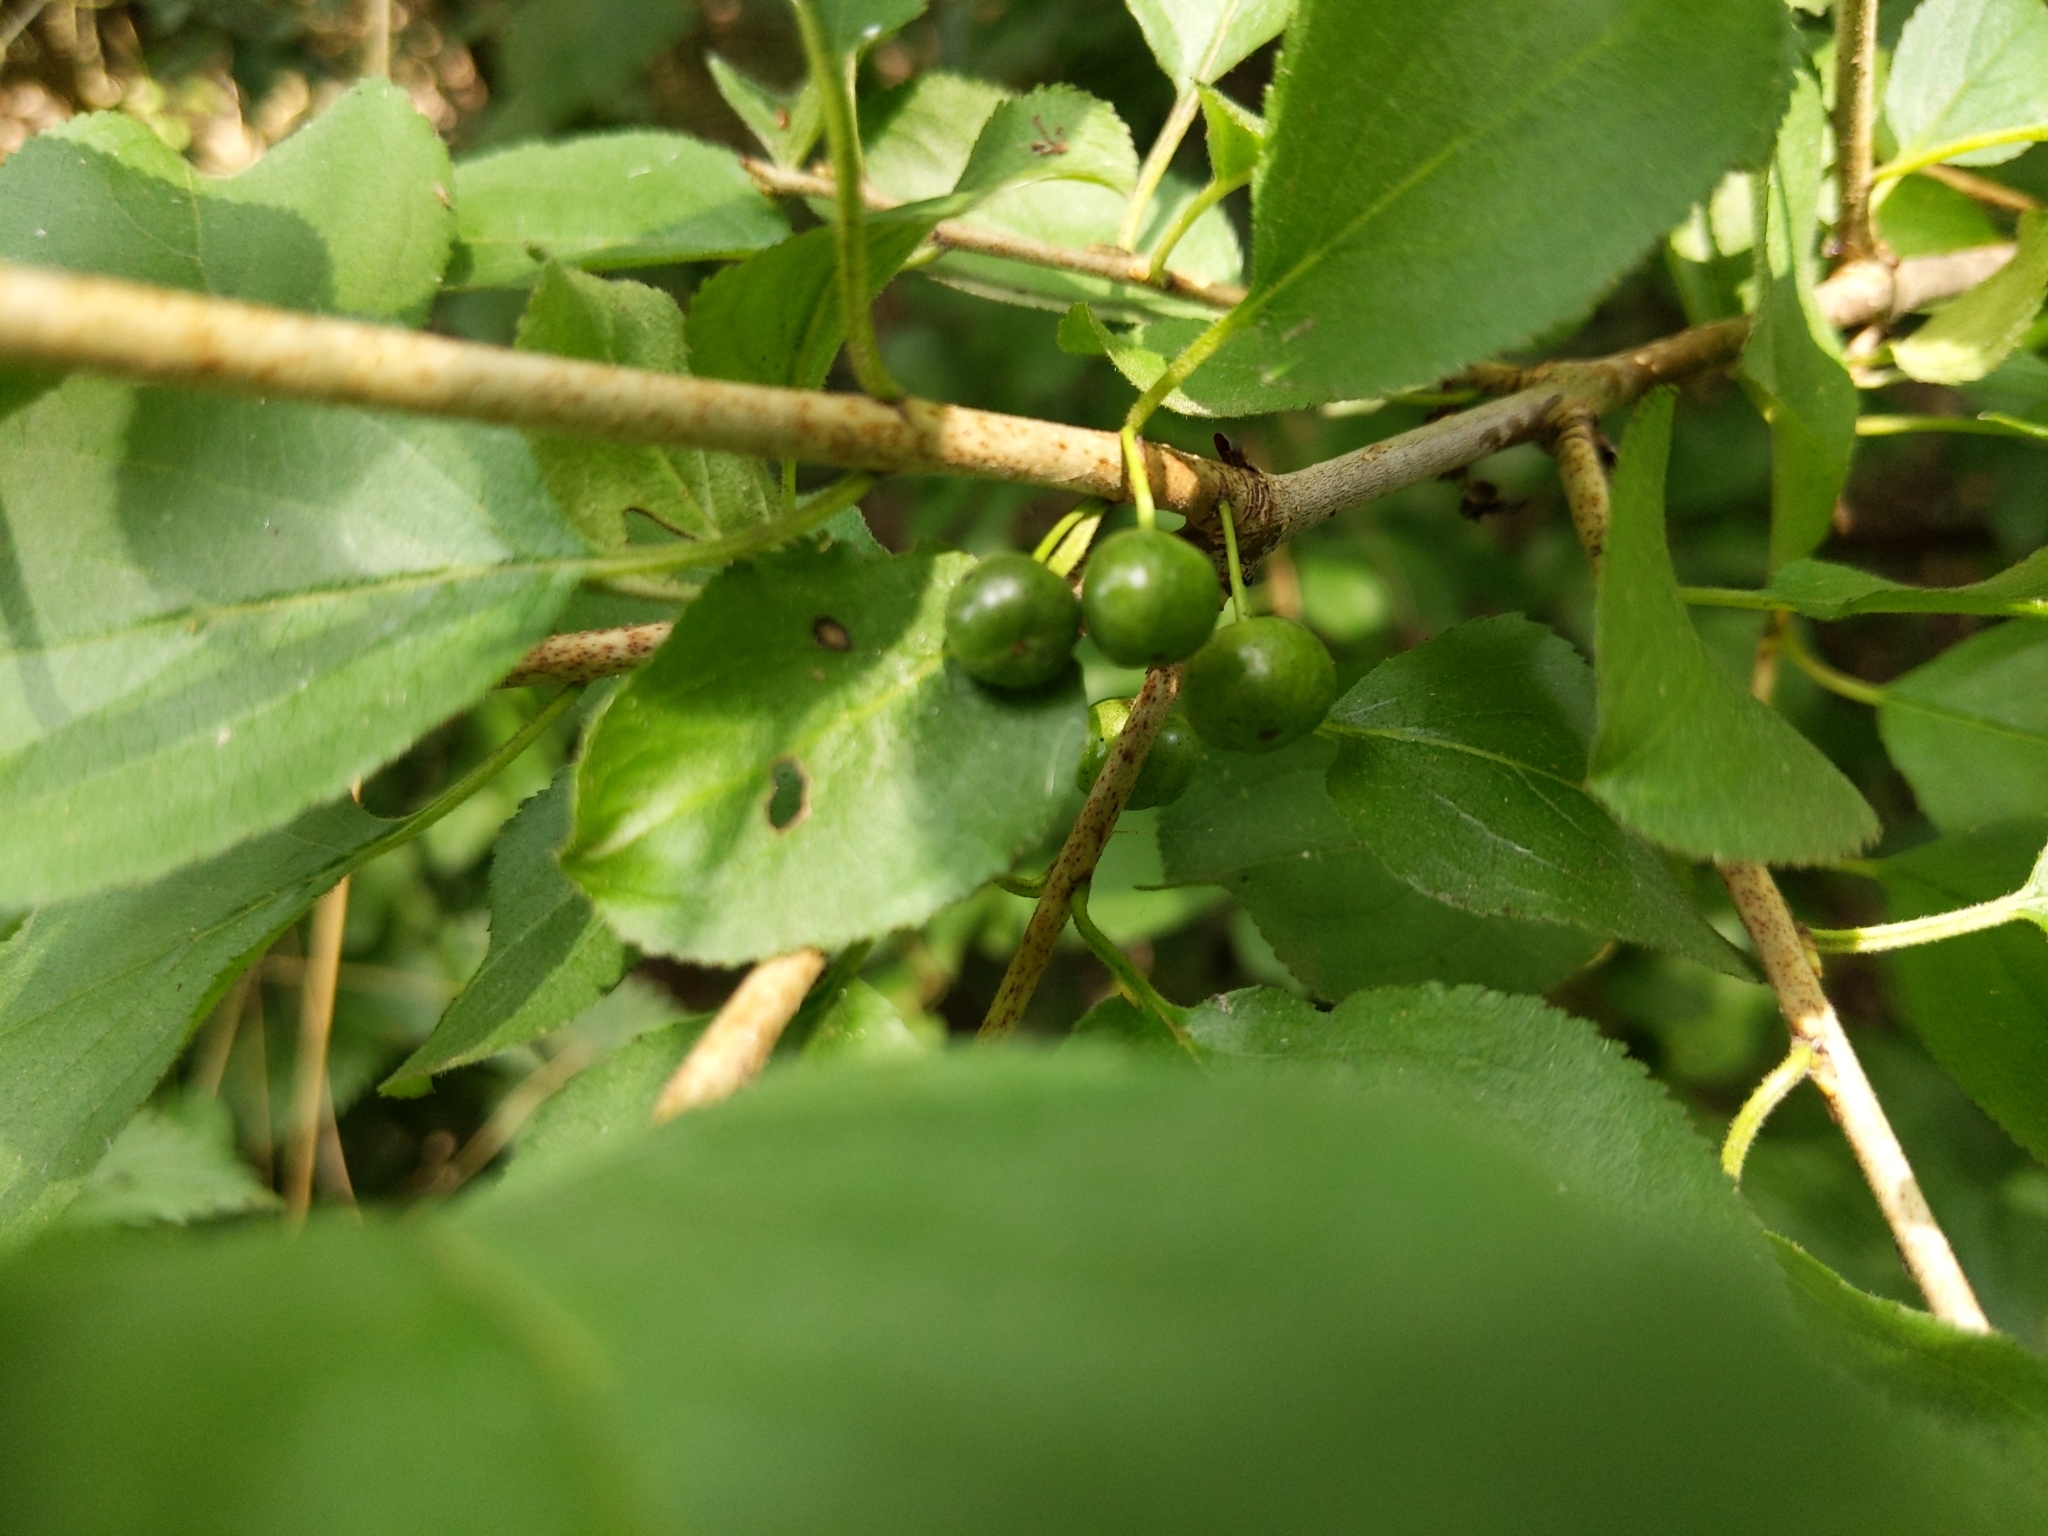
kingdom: Plantae
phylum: Tracheophyta
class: Magnoliopsida
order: Rosales
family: Rhamnaceae
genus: Rhamnus
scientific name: Rhamnus cathartica
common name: Common buckthorn
